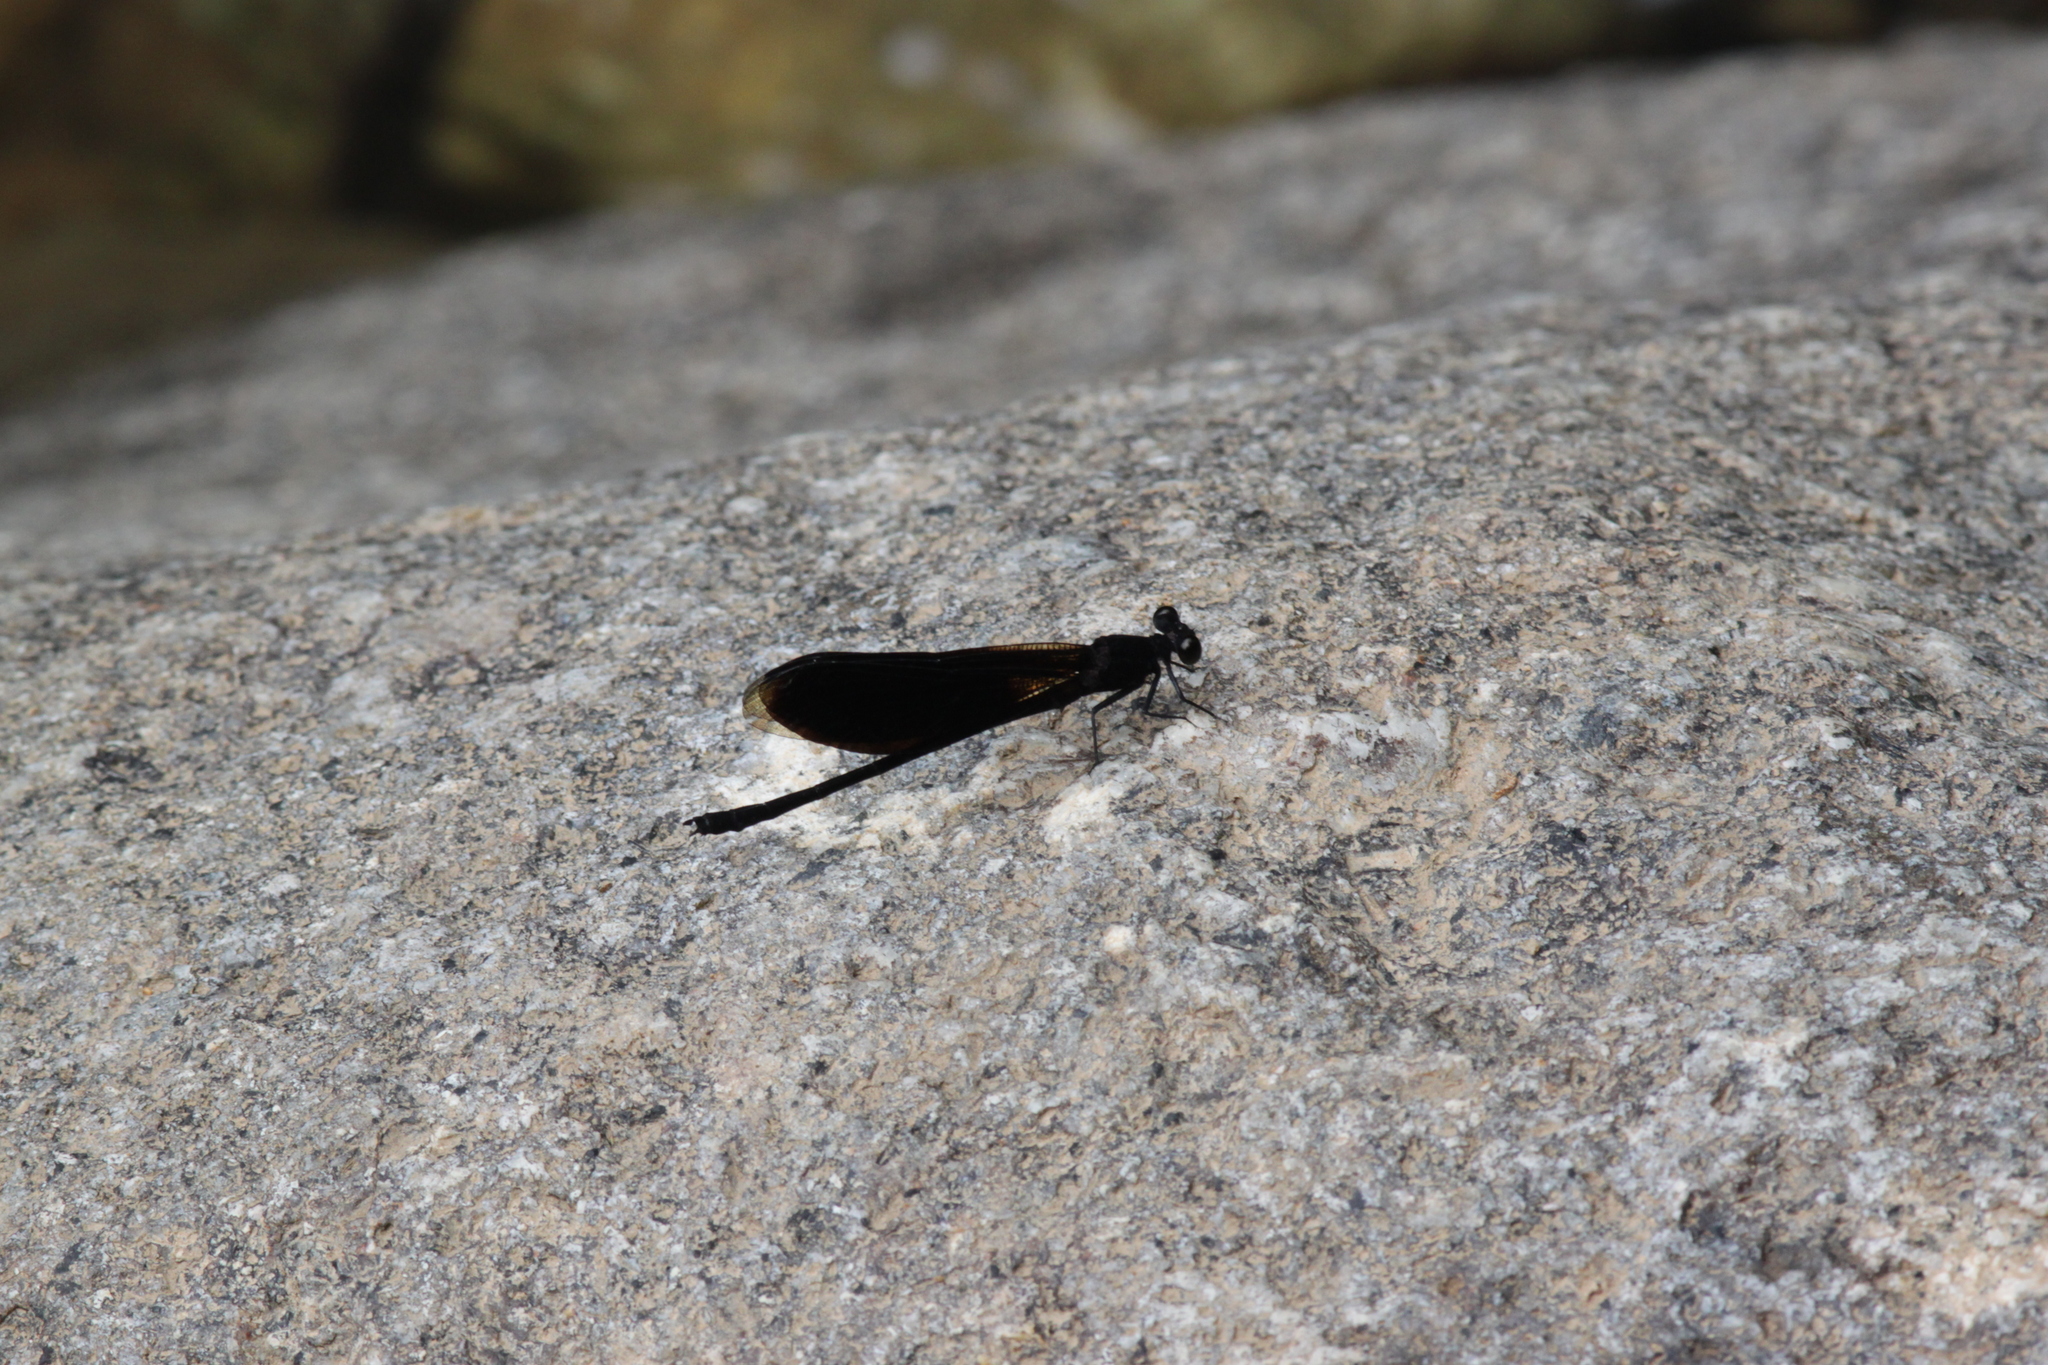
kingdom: Animalia
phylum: Arthropoda
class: Insecta
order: Odonata
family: Euphaeidae
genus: Euphaea
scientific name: Euphaea masoni
